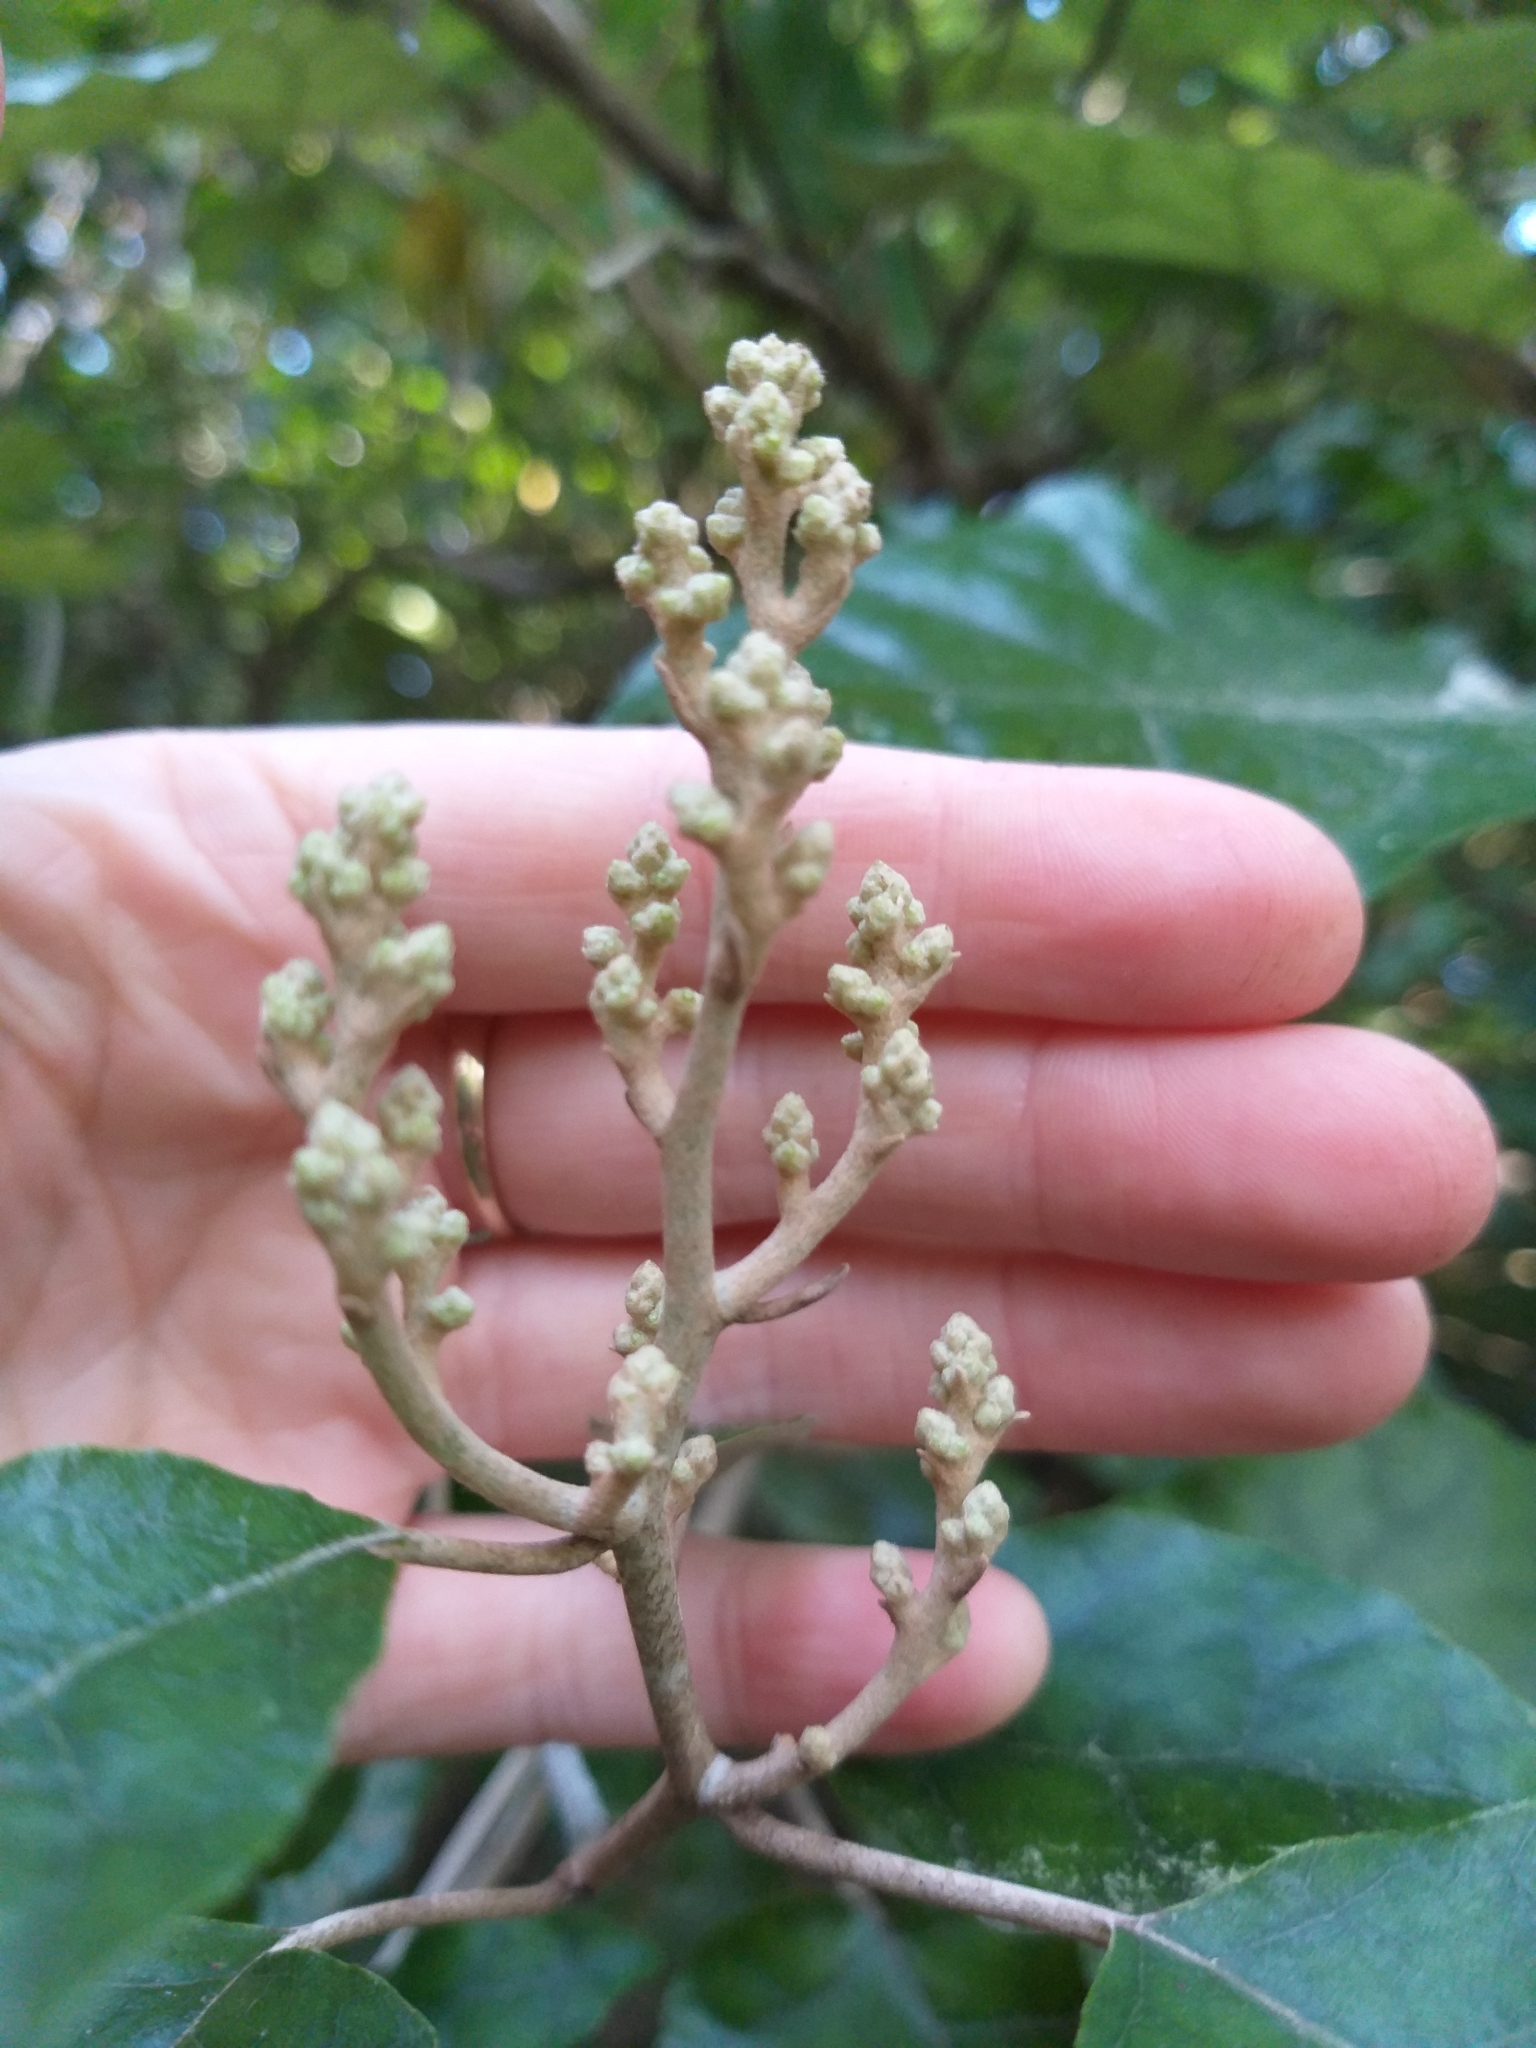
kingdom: Plantae
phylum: Tracheophyta
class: Magnoliopsida
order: Asterales
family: Asteraceae
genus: Brachyglottis
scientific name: Brachyglottis repanda
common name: Hedge ragwort
